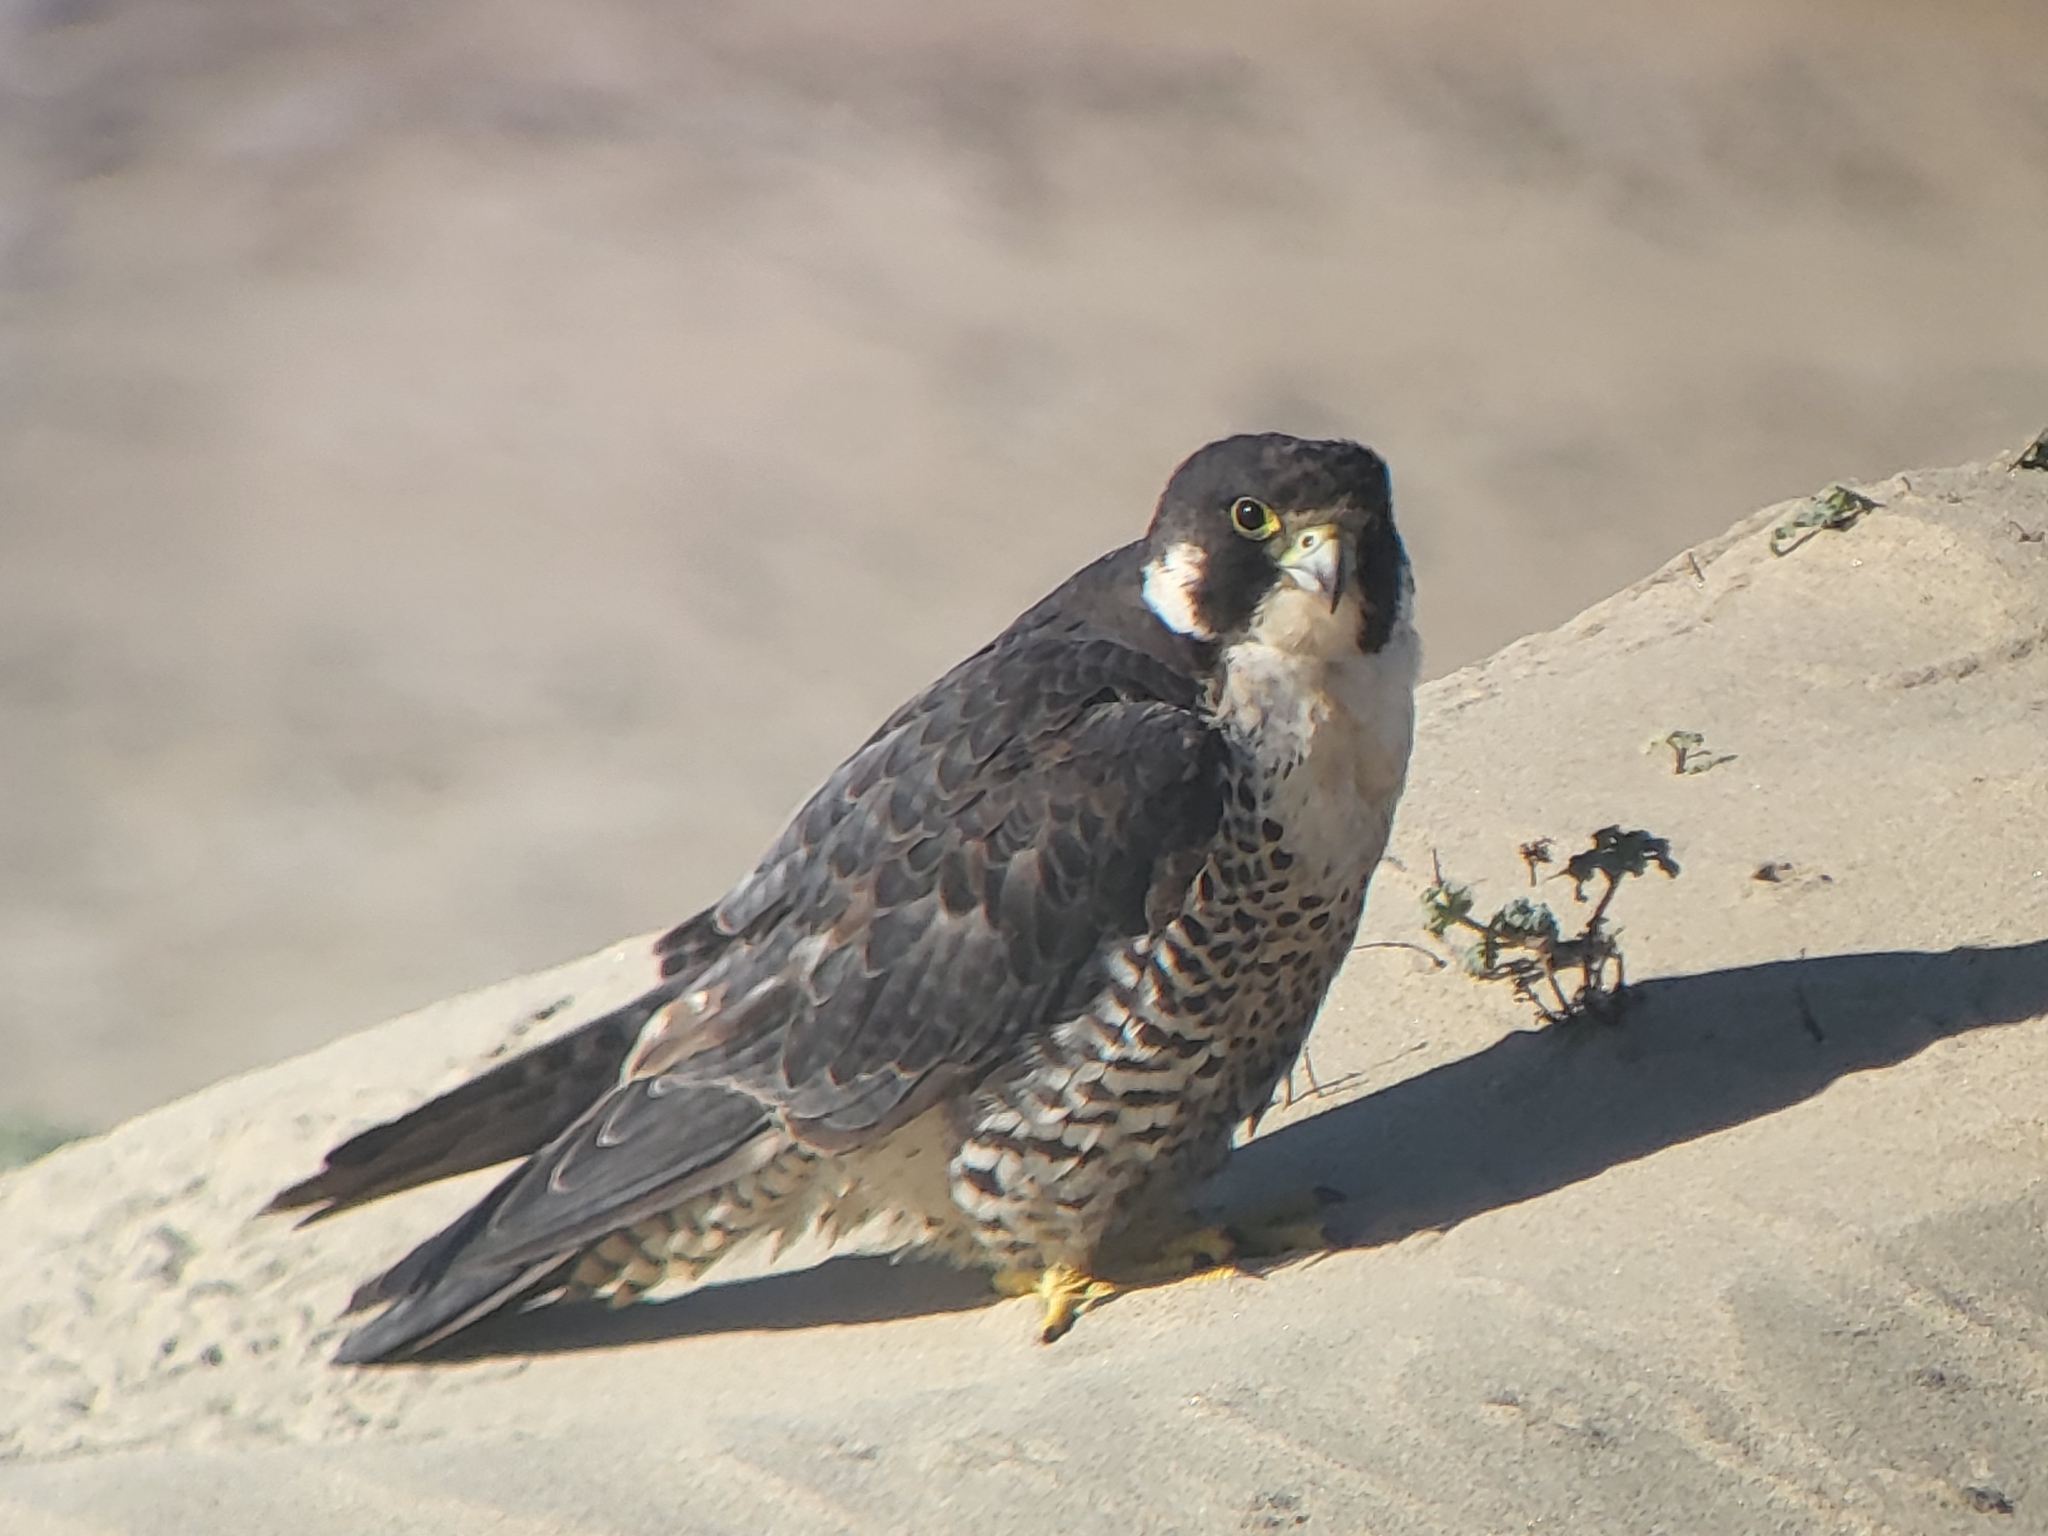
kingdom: Animalia
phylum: Chordata
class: Aves
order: Falconiformes
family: Falconidae
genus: Falco
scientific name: Falco peregrinus
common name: Peregrine falcon
